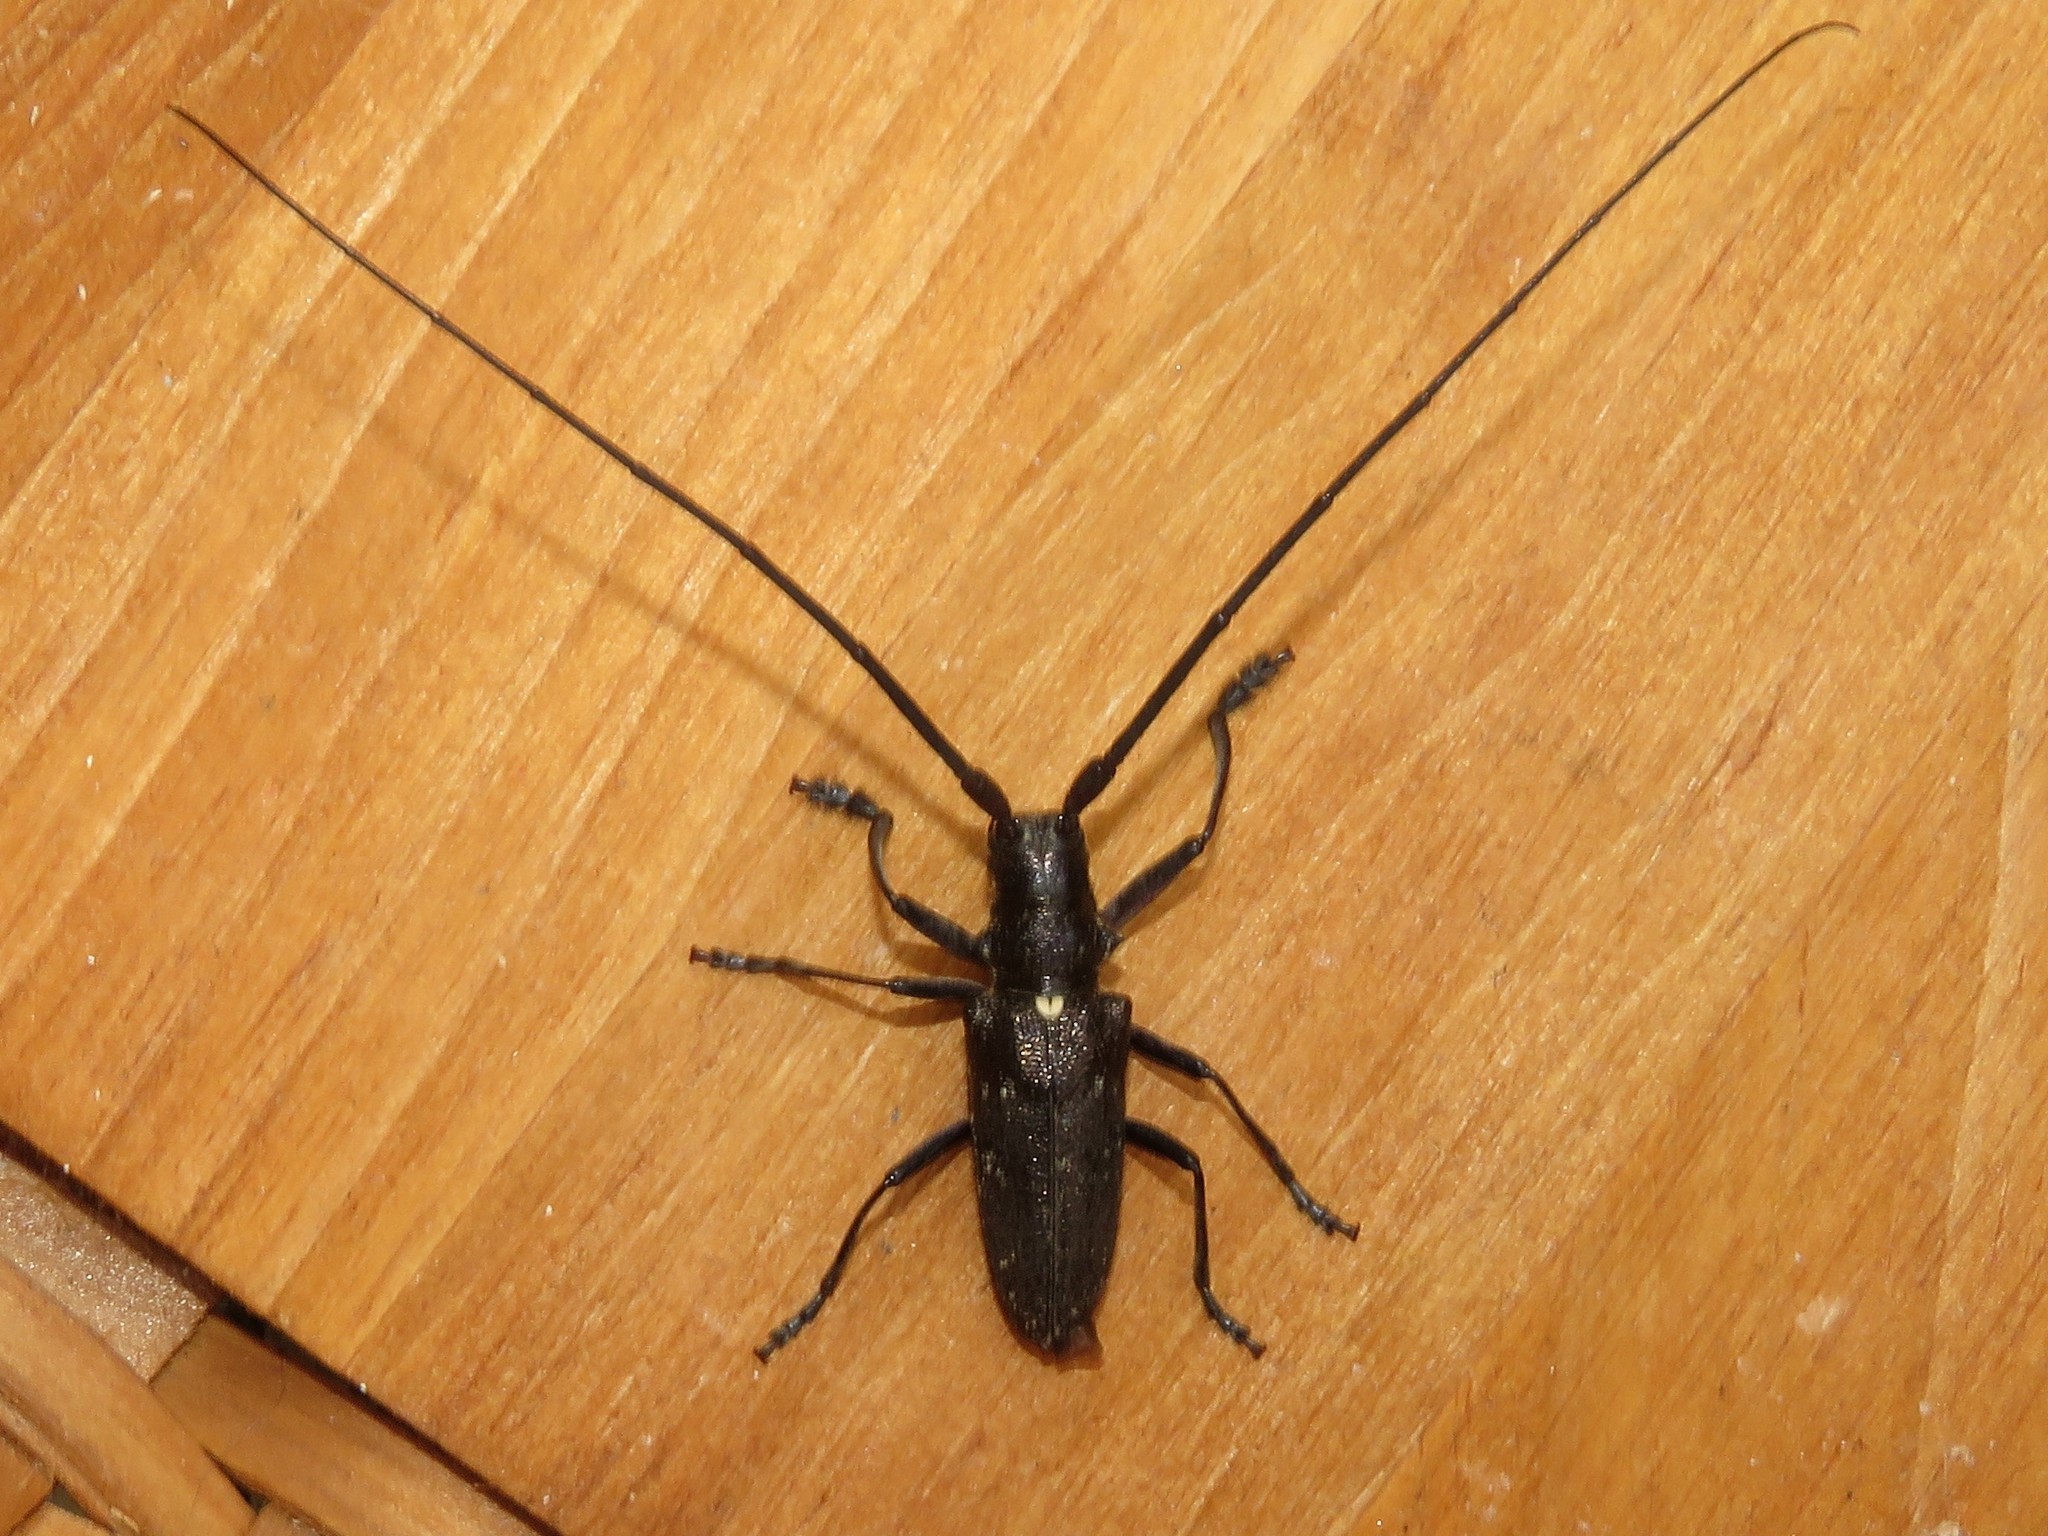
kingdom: Animalia
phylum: Arthropoda
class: Insecta
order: Coleoptera
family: Cerambycidae
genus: Monochamus
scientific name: Monochamus scutellatus
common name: White-spotted sawyer beetle
